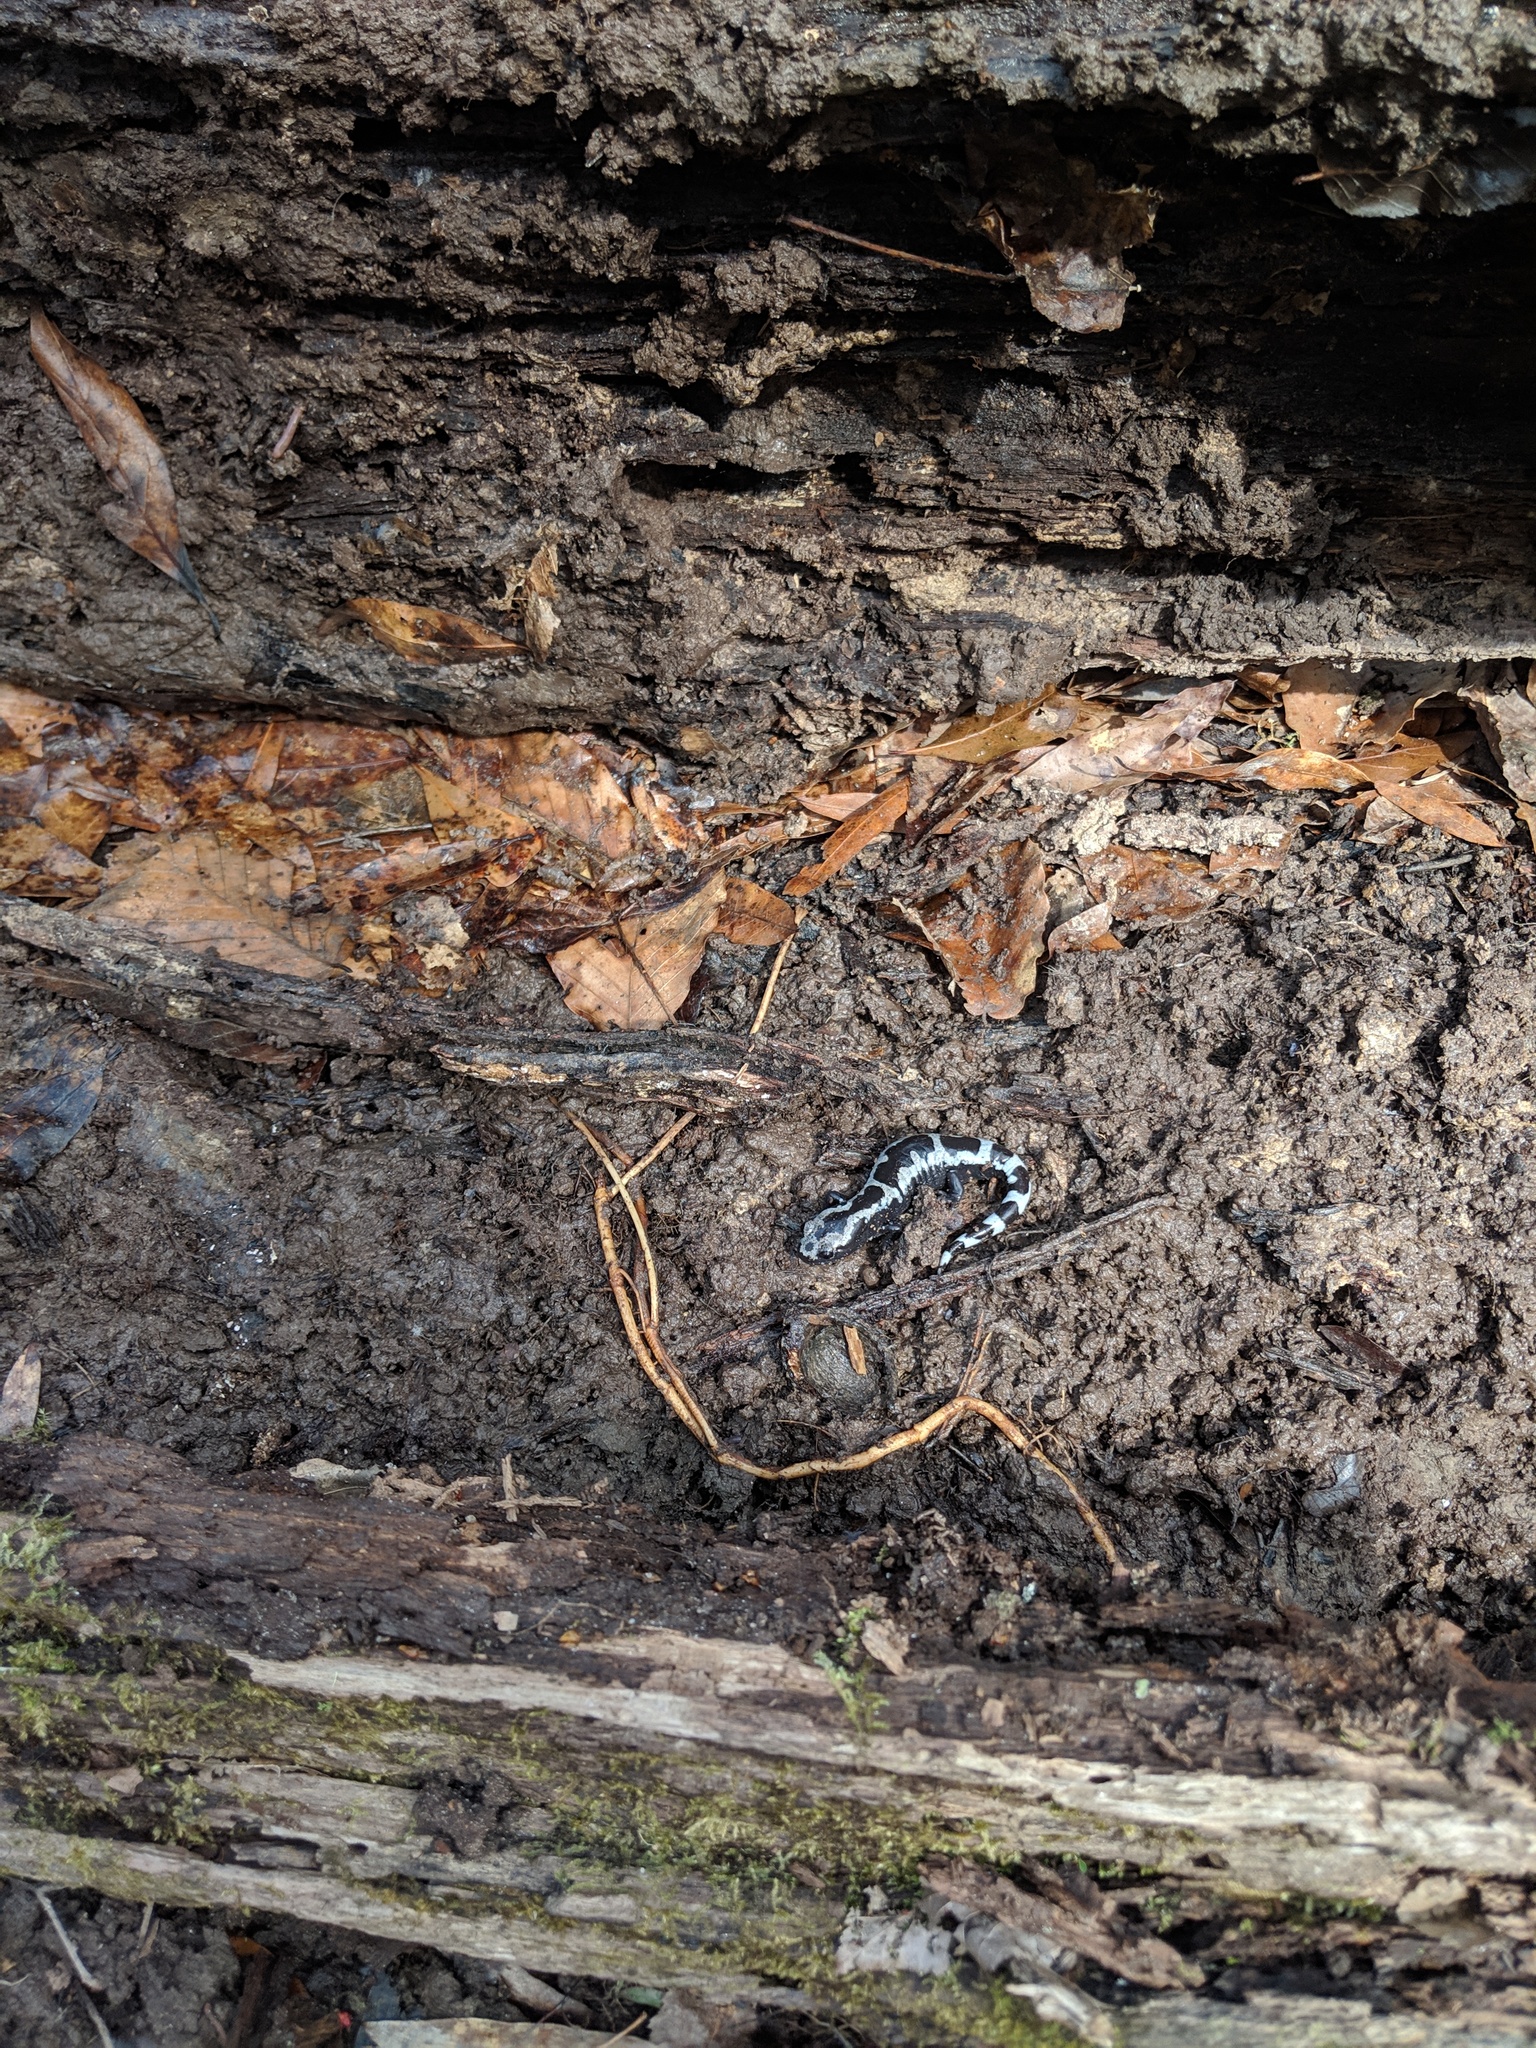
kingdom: Animalia
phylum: Chordata
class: Amphibia
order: Caudata
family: Ambystomatidae
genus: Ambystoma
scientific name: Ambystoma opacum
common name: Marbled salamander
